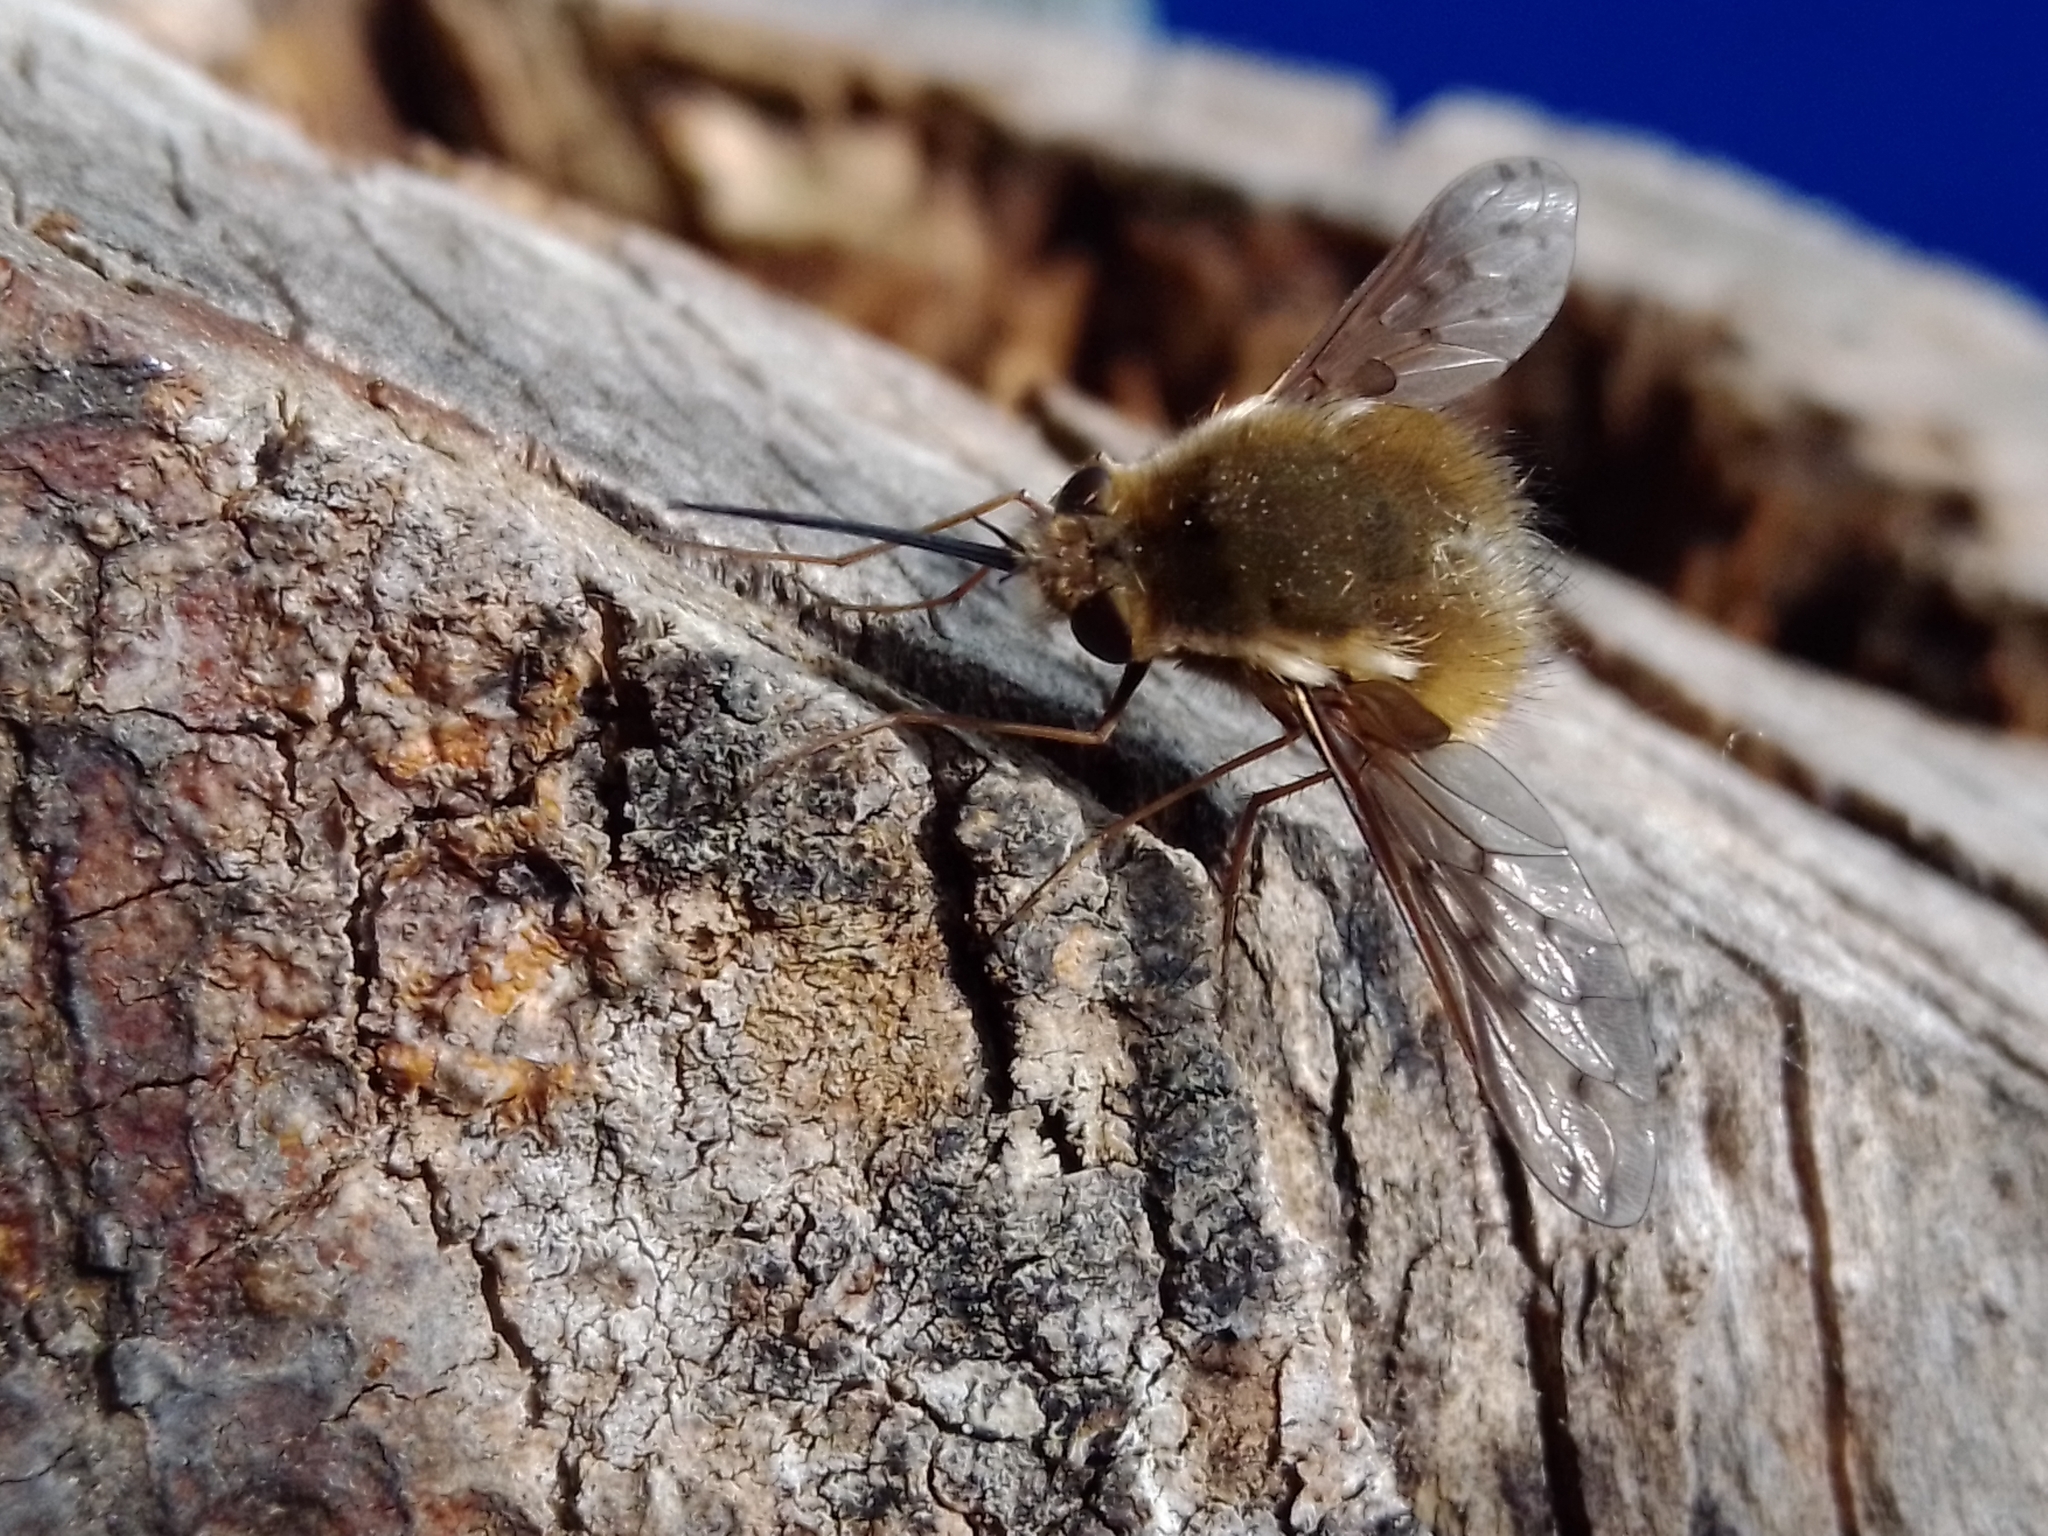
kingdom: Animalia
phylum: Arthropoda
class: Insecta
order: Diptera
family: Bombyliidae
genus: Bombylius
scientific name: Bombylius medius
